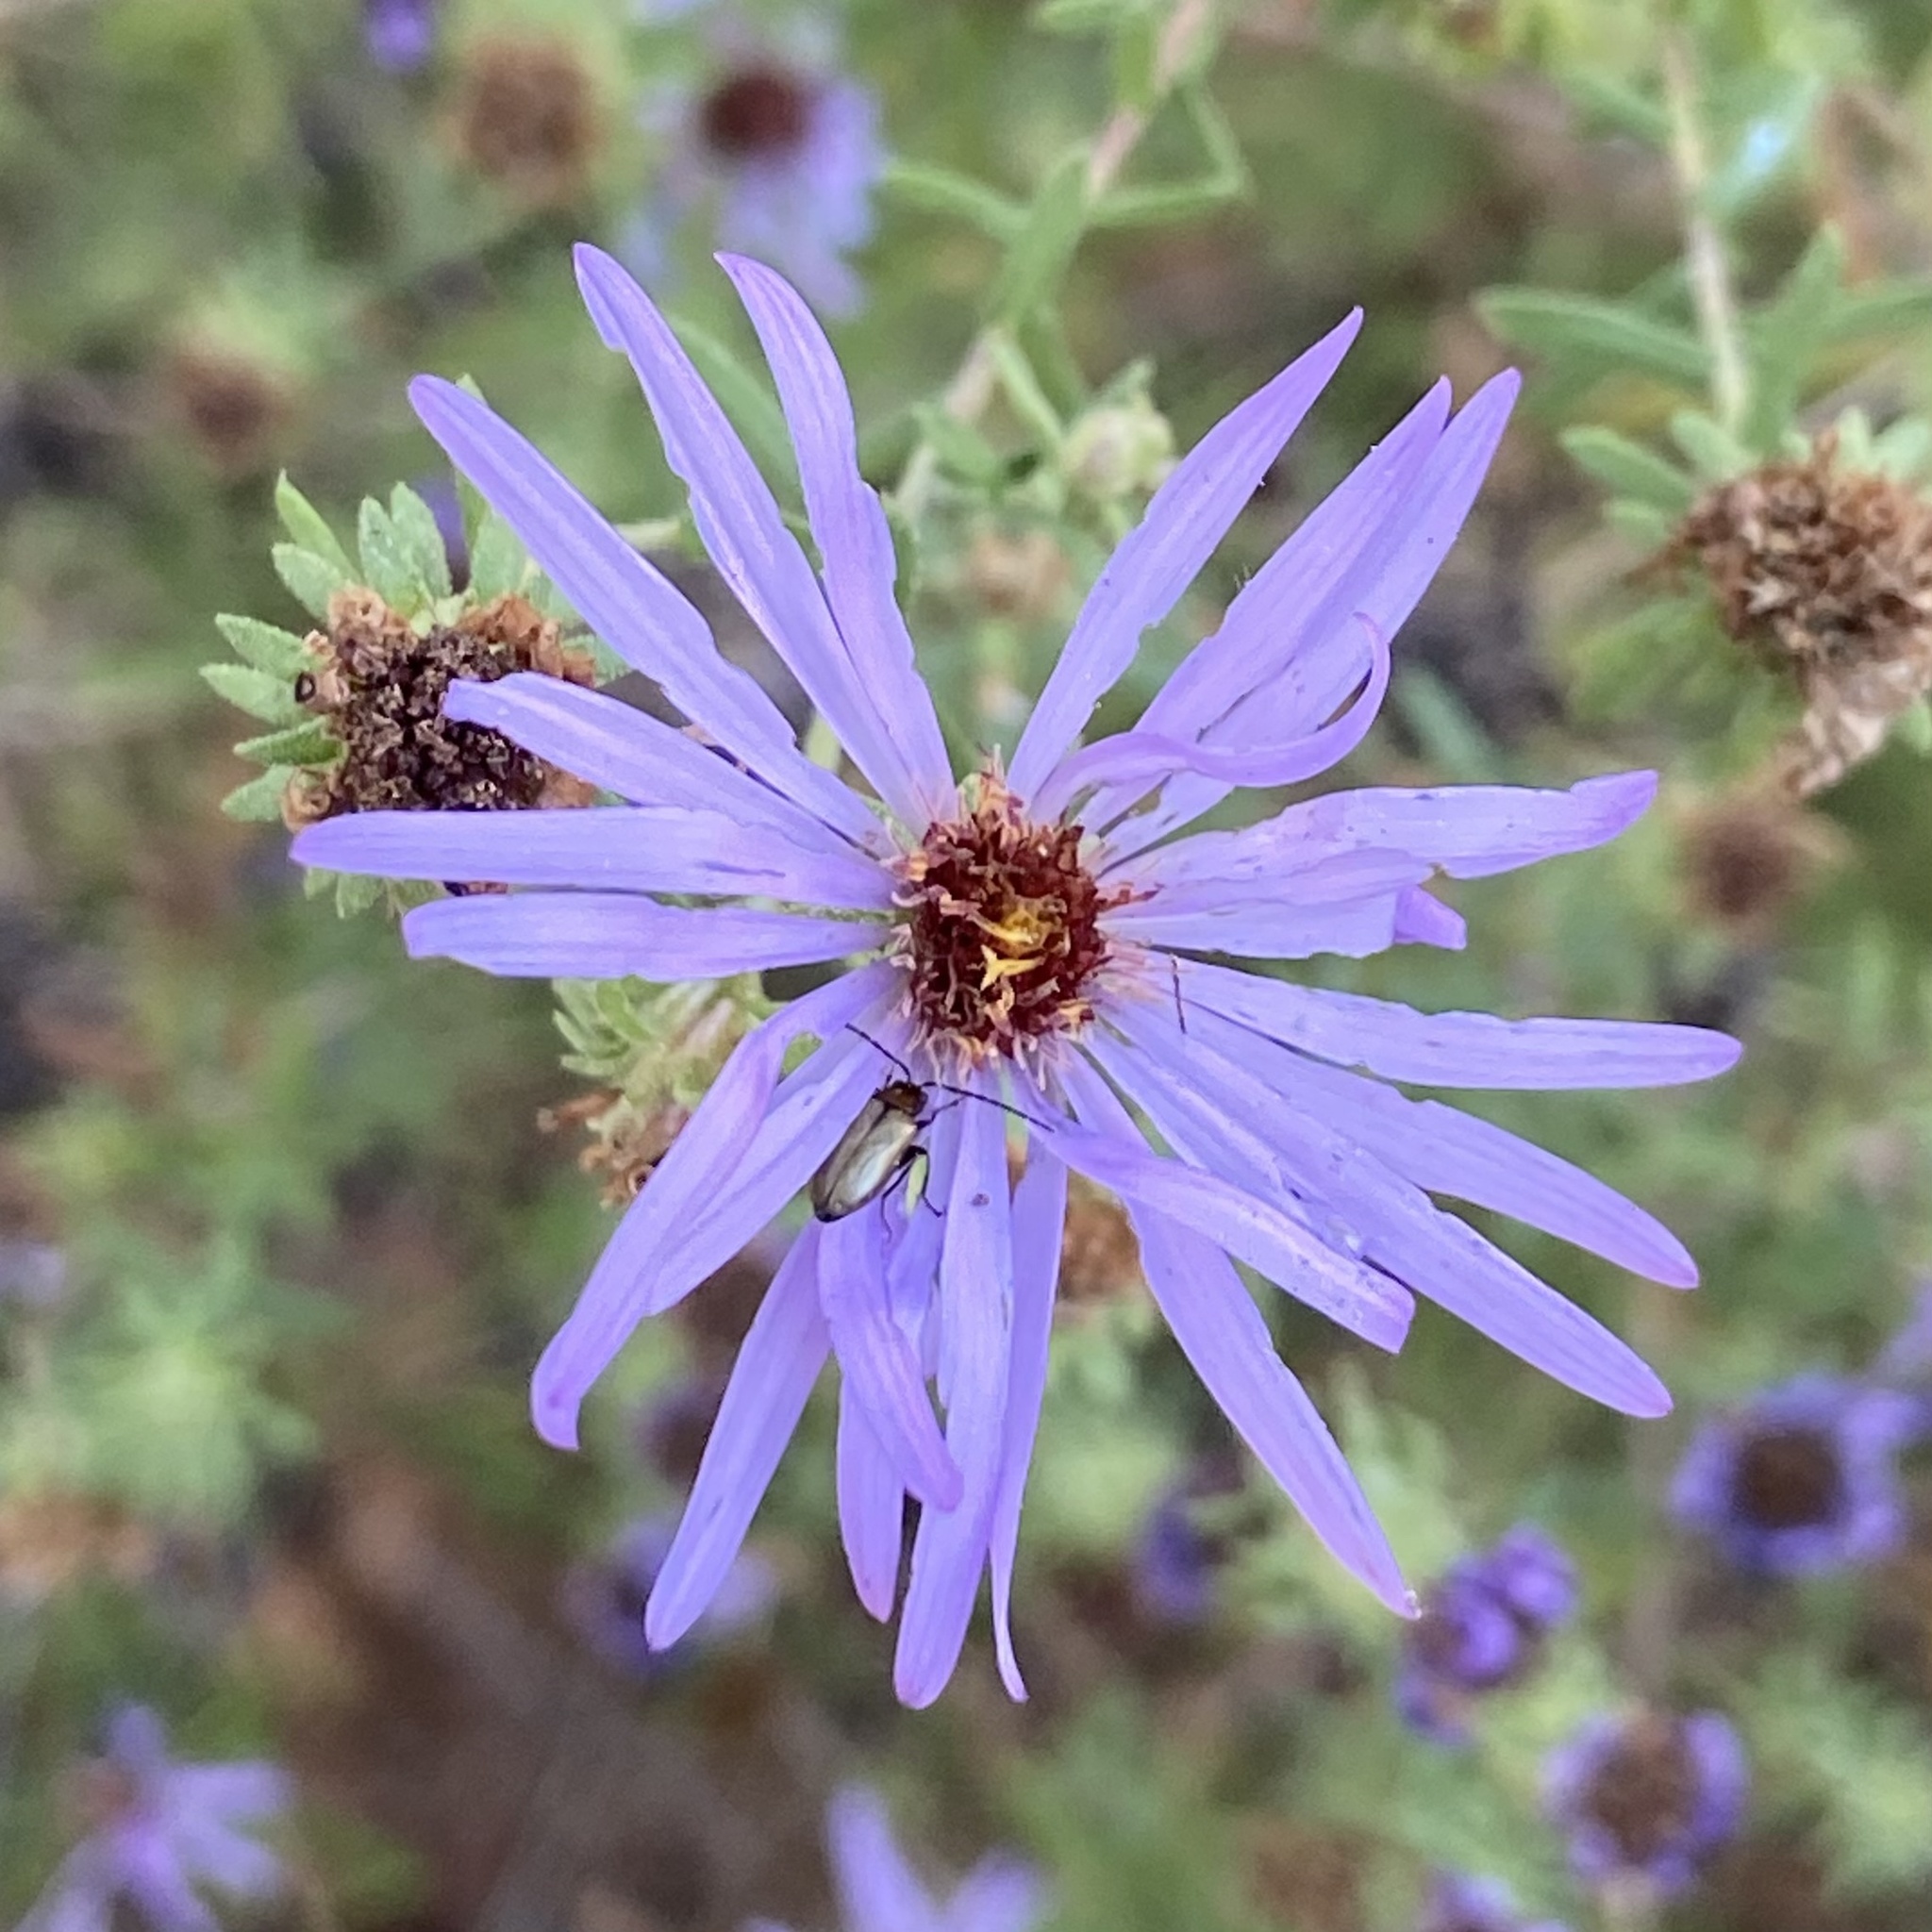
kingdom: Plantae
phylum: Tracheophyta
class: Magnoliopsida
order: Asterales
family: Asteraceae
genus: Symphyotrichum
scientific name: Symphyotrichum oblongifolium
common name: Aromatic aster
